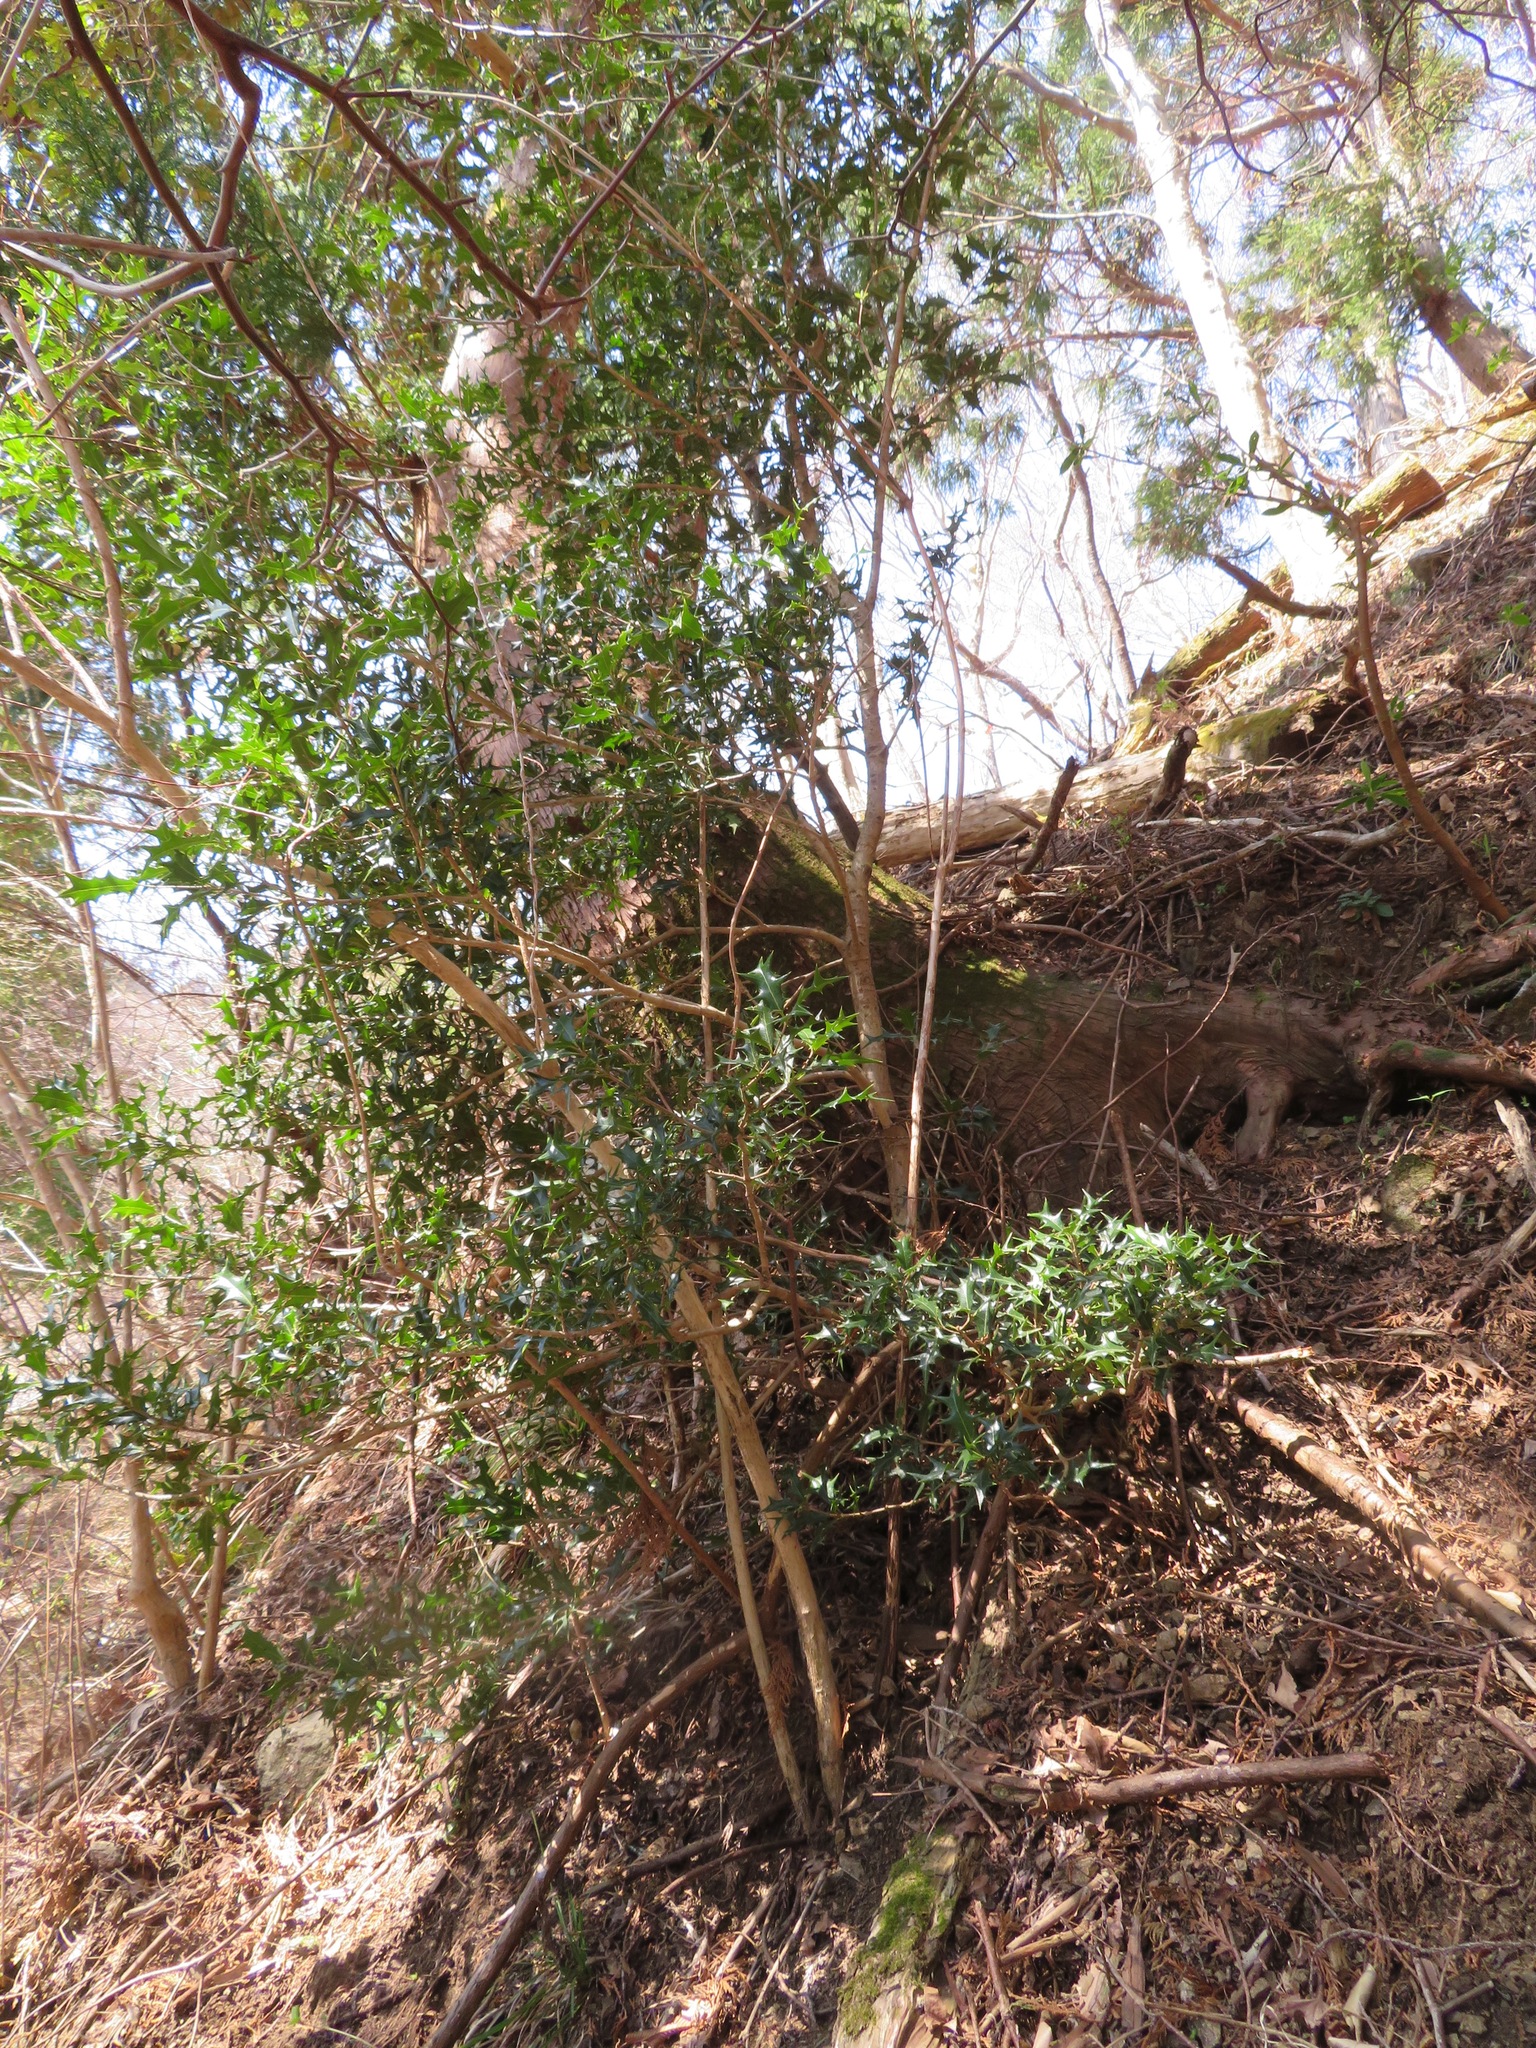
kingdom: Plantae
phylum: Tracheophyta
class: Magnoliopsida
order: Lamiales
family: Oleaceae
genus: Osmanthus
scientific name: Osmanthus heterophyllus
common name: Holly osmanthus
